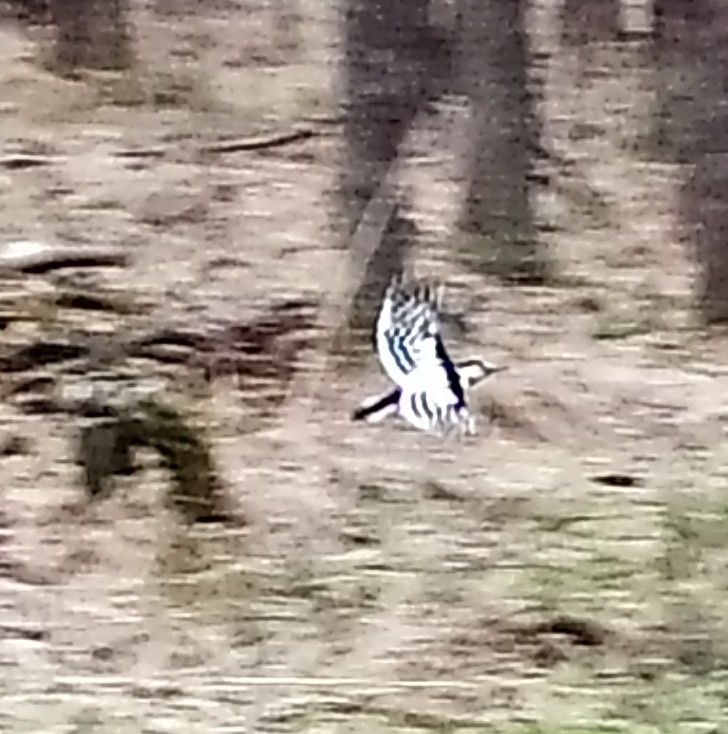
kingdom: Animalia
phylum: Chordata
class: Aves
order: Piciformes
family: Picidae
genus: Dendrocopos
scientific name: Dendrocopos leucotos
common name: White-backed woodpecker
